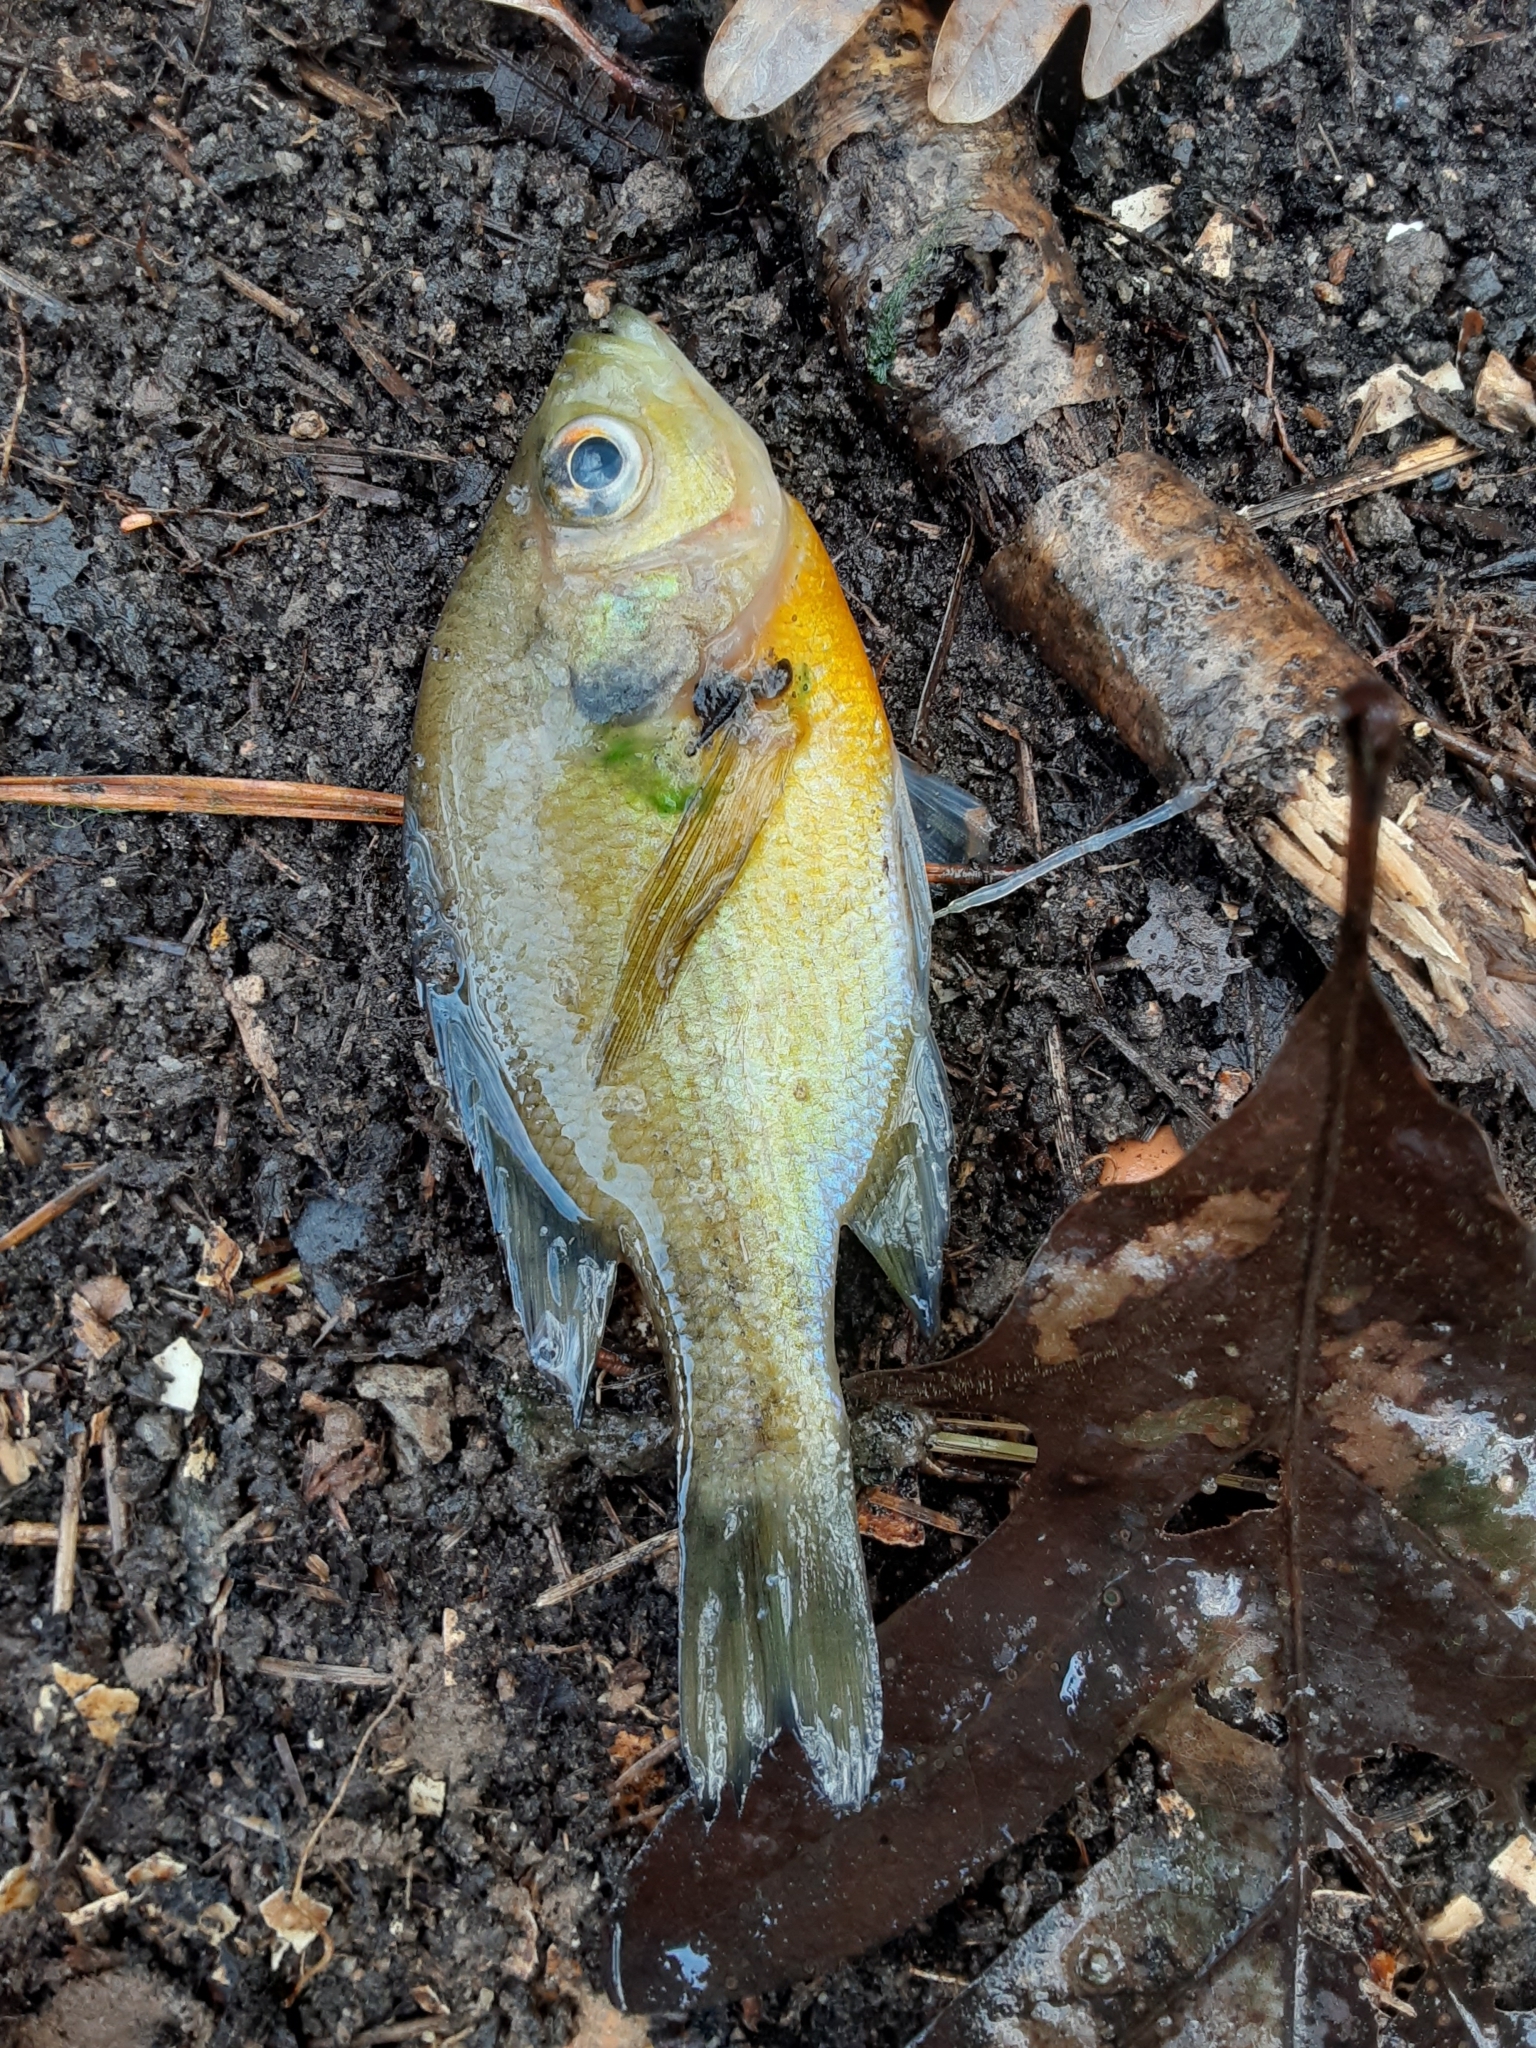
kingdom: Animalia
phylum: Chordata
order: Perciformes
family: Centrarchidae
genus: Lepomis
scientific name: Lepomis macrochirus
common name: Bluegill
